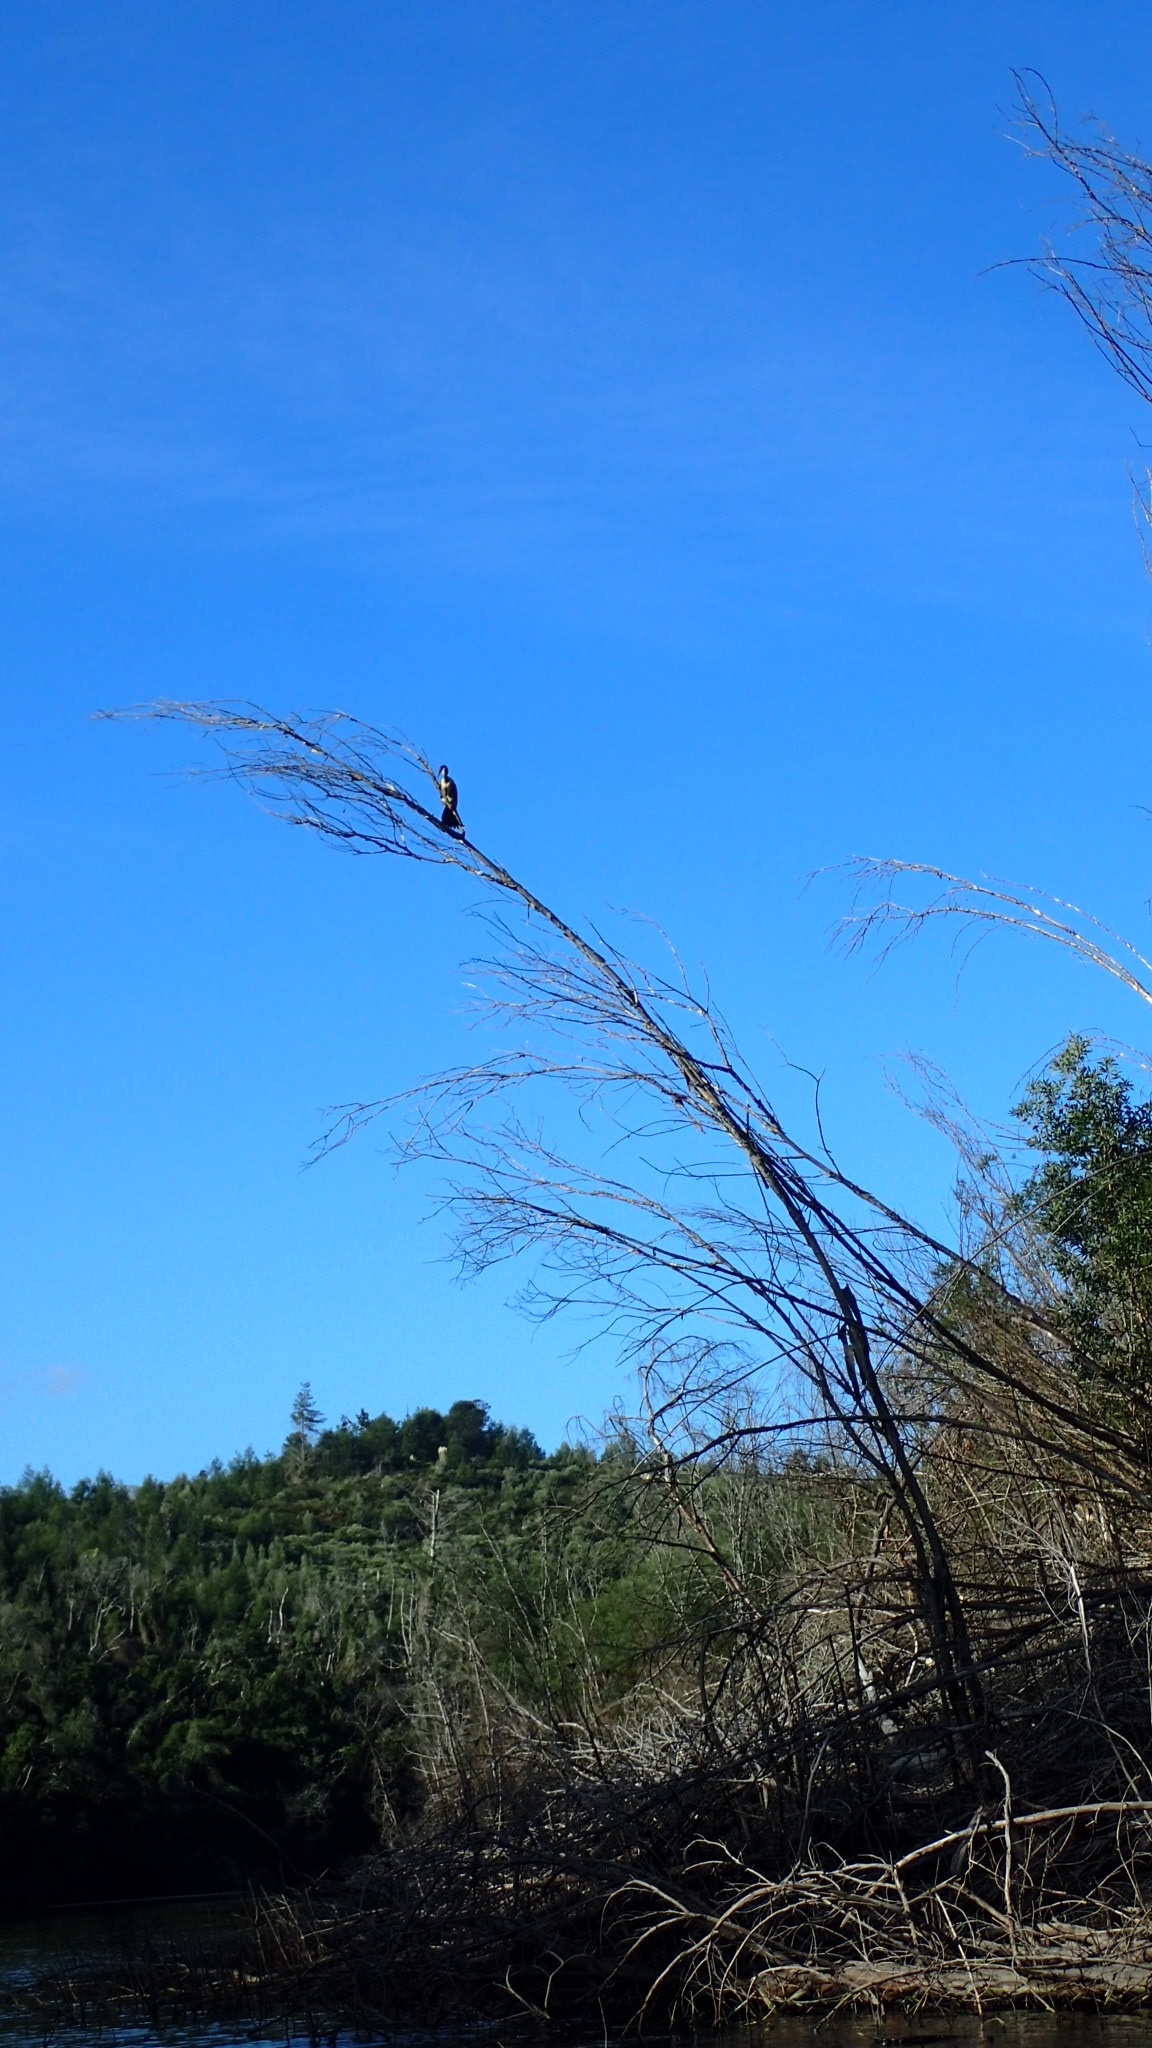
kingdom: Animalia
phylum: Chordata
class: Aves
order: Suliformes
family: Anhingidae
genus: Anhinga
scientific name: Anhinga rufa
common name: African darter
